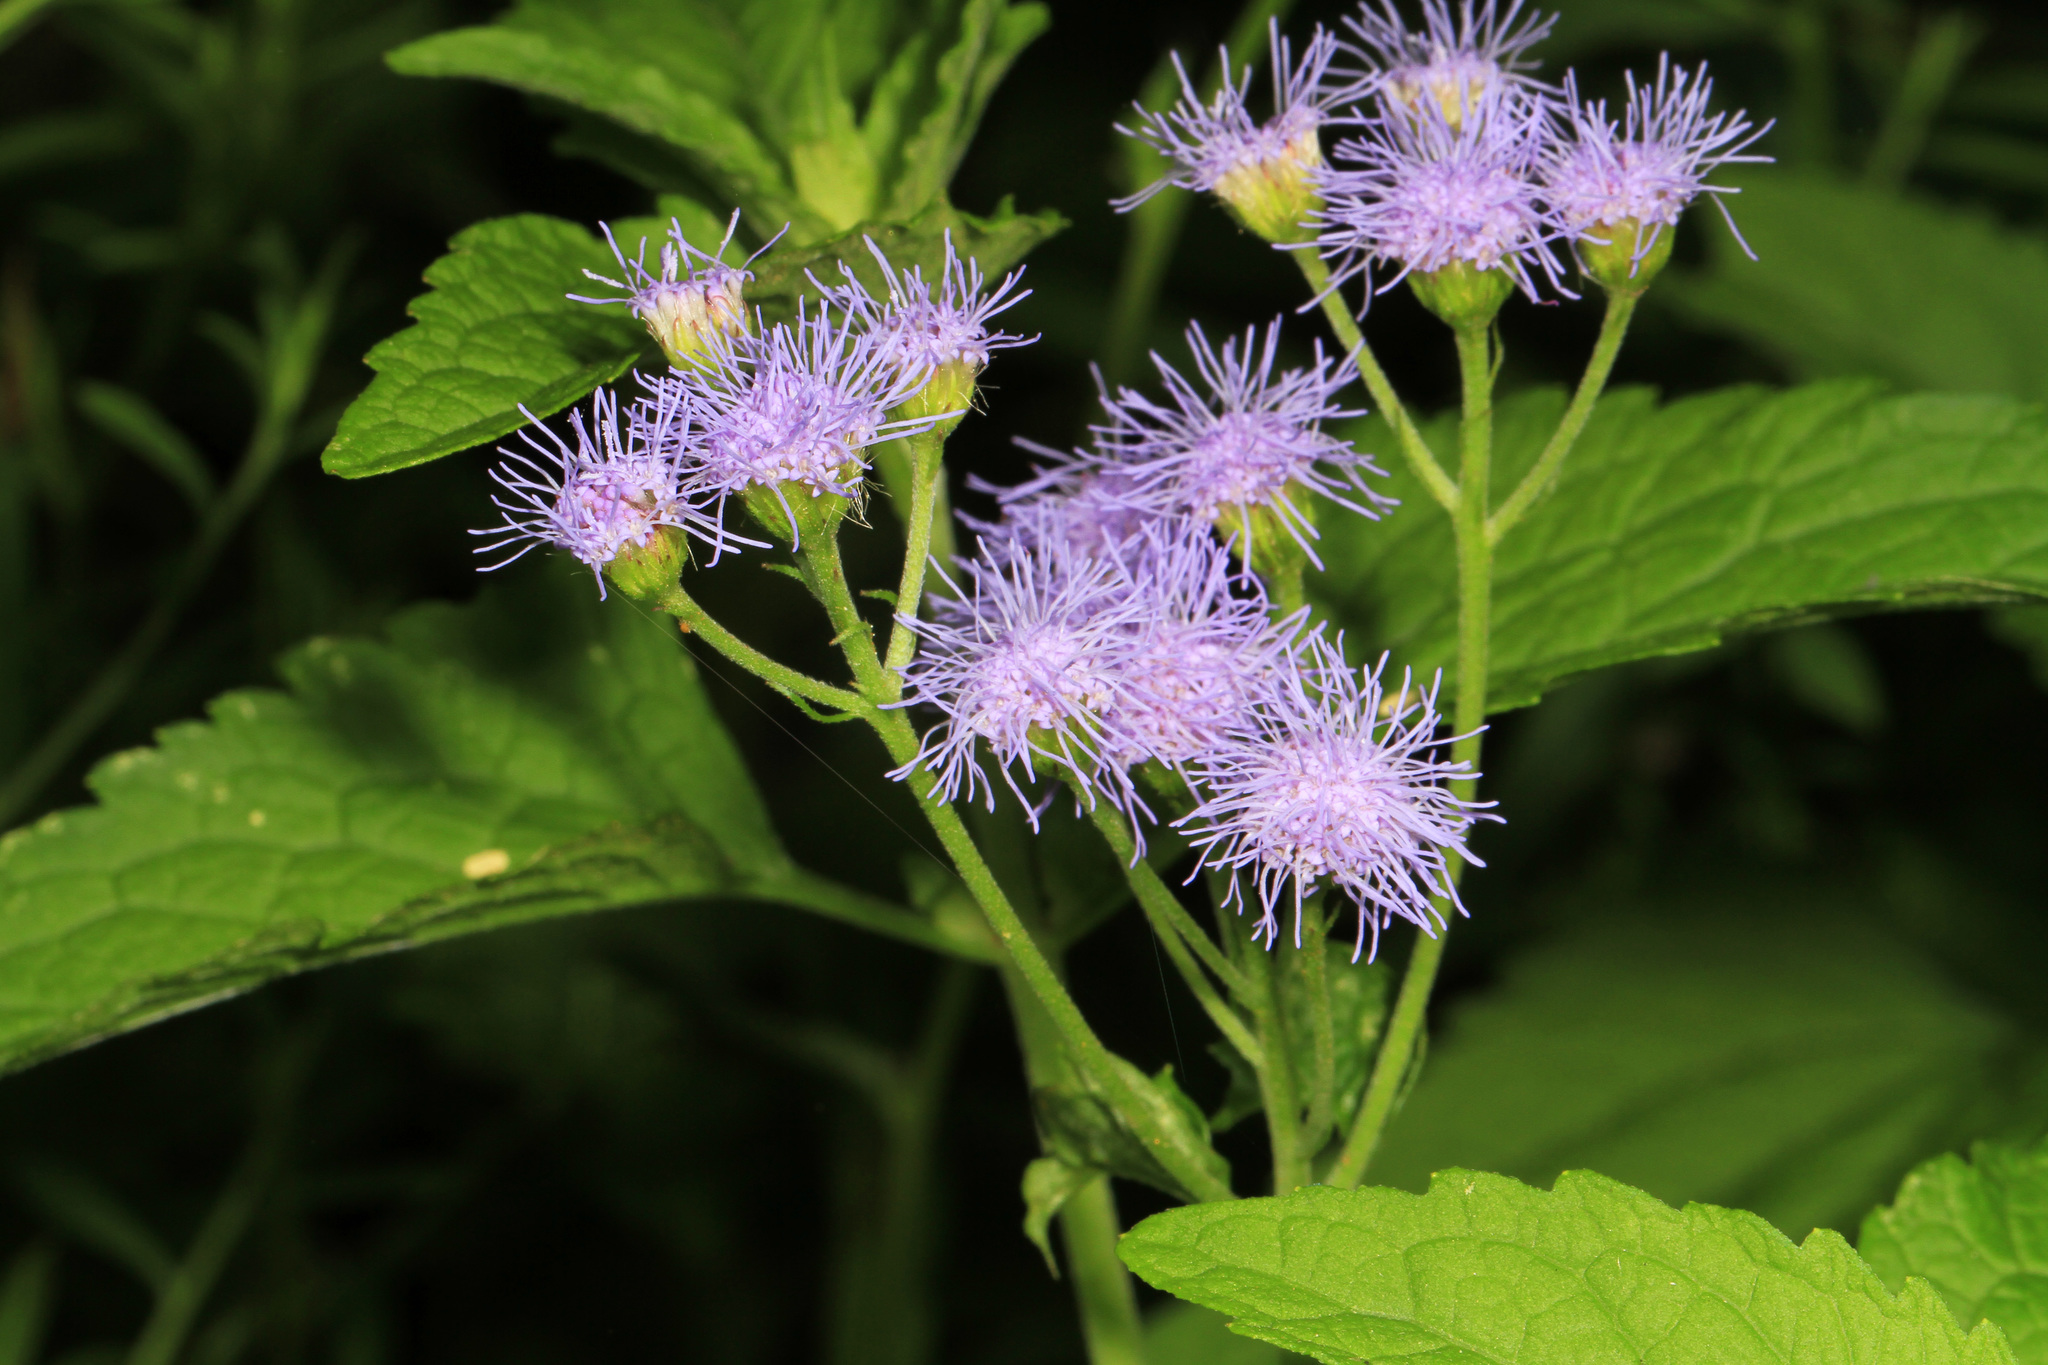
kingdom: Plantae
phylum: Tracheophyta
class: Magnoliopsida
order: Asterales
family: Asteraceae
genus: Conoclinium
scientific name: Conoclinium coelestinum
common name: Blue mistflower
